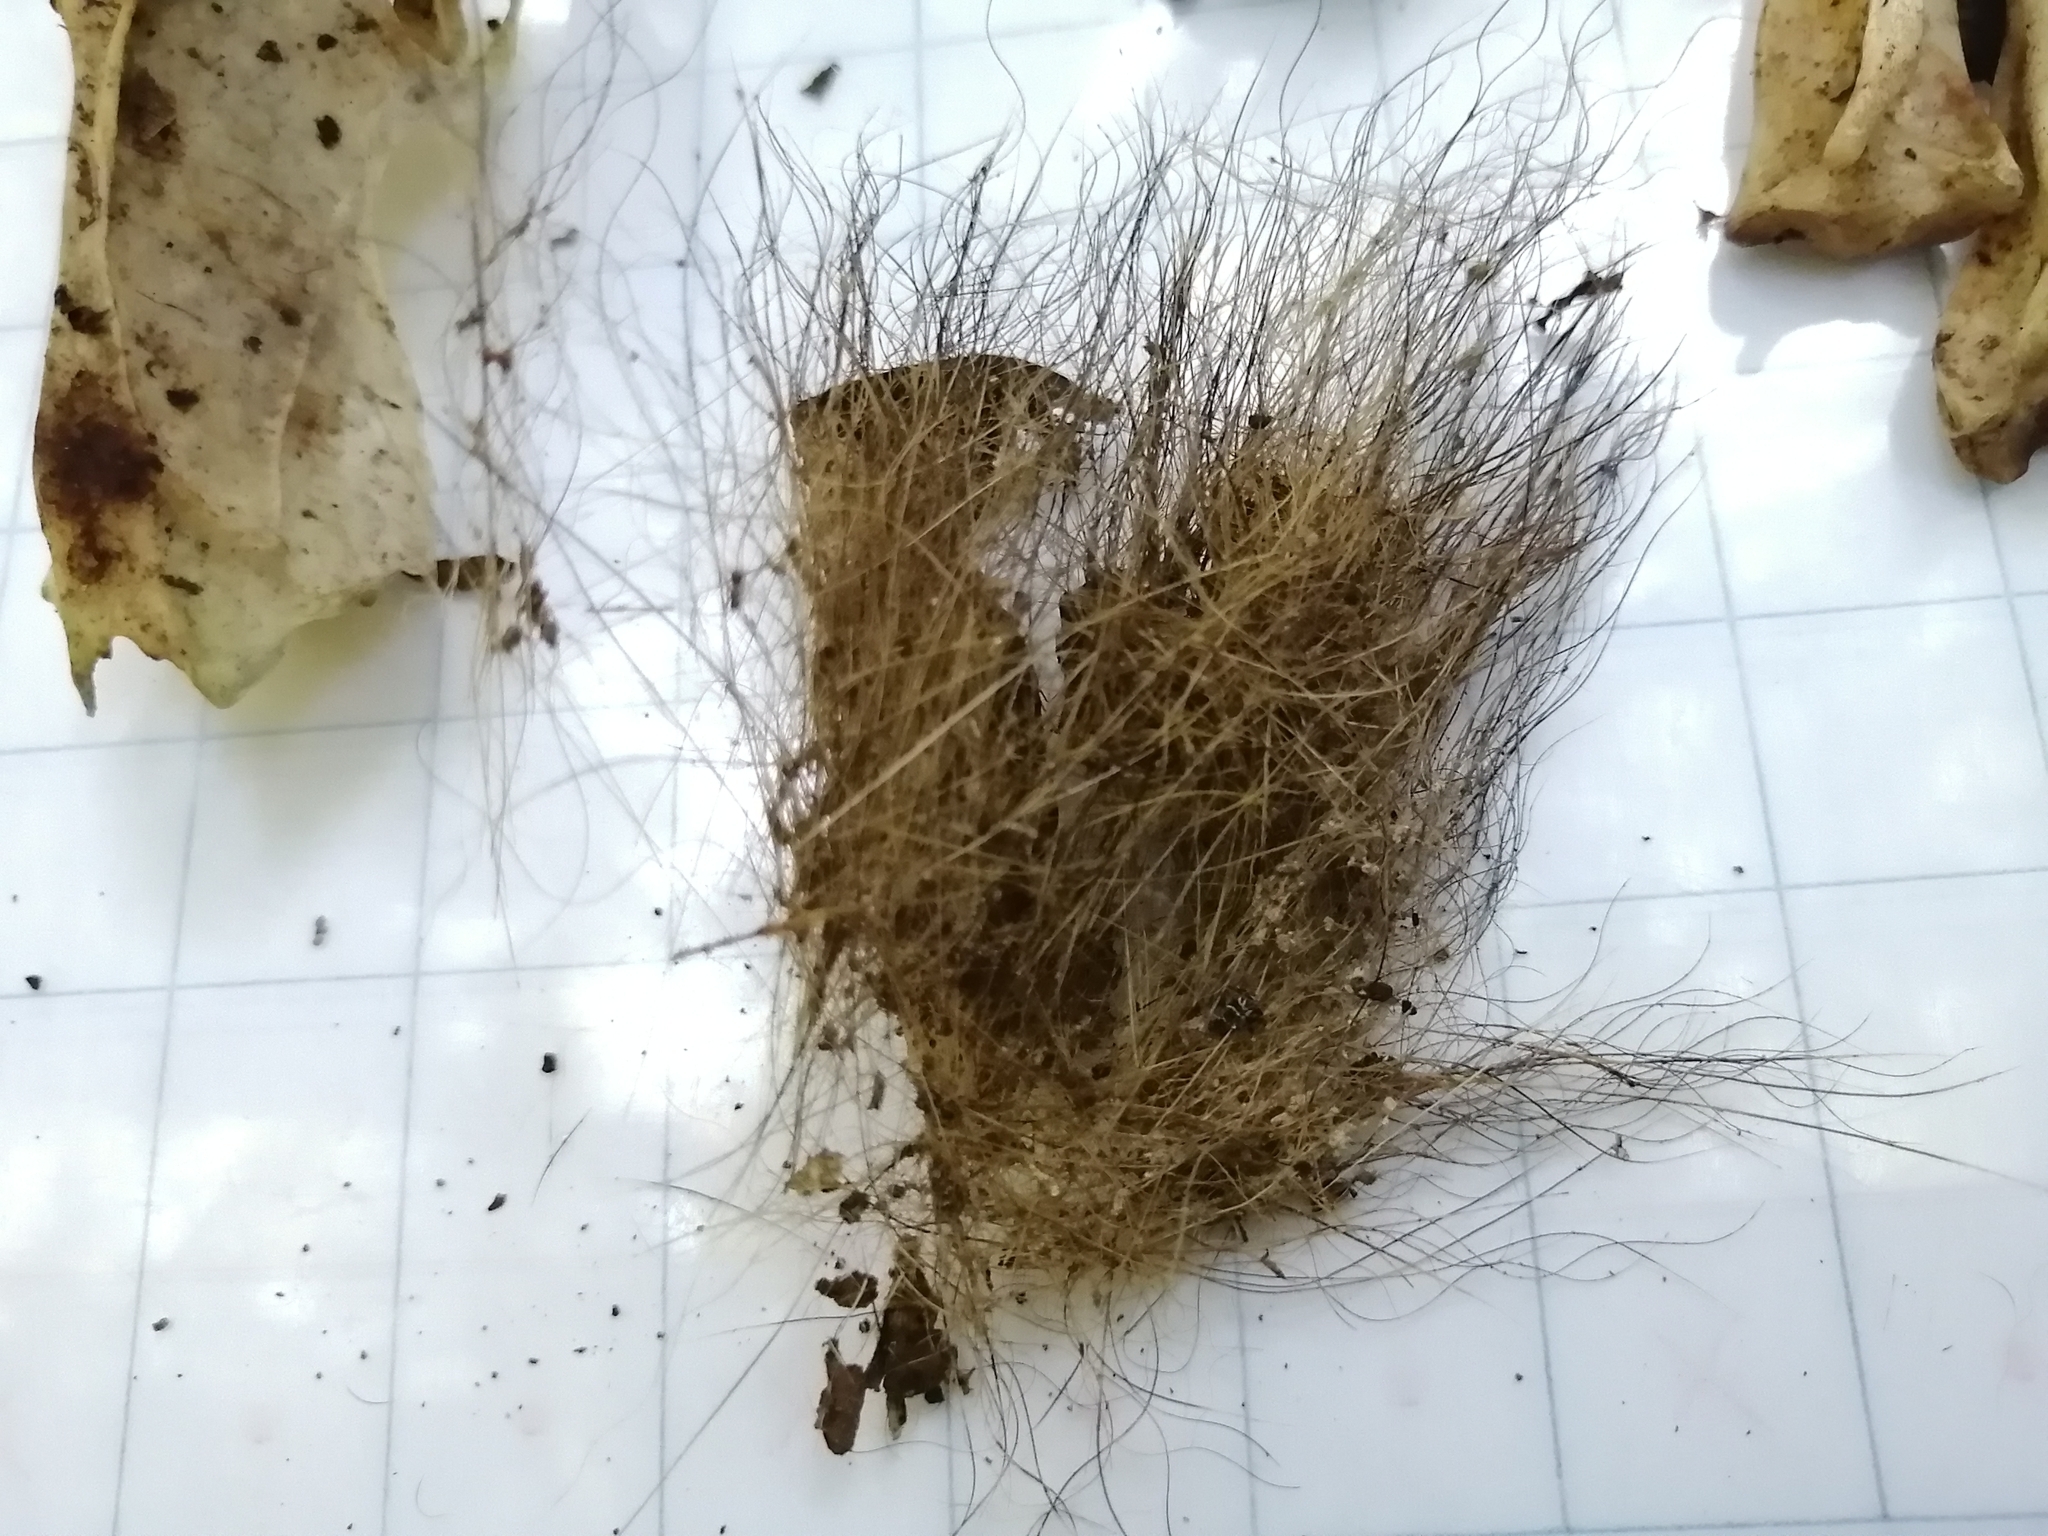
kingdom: Animalia
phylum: Chordata
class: Mammalia
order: Carnivora
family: Procyonidae
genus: Nasua
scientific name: Nasua narica
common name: White-nosed coati
